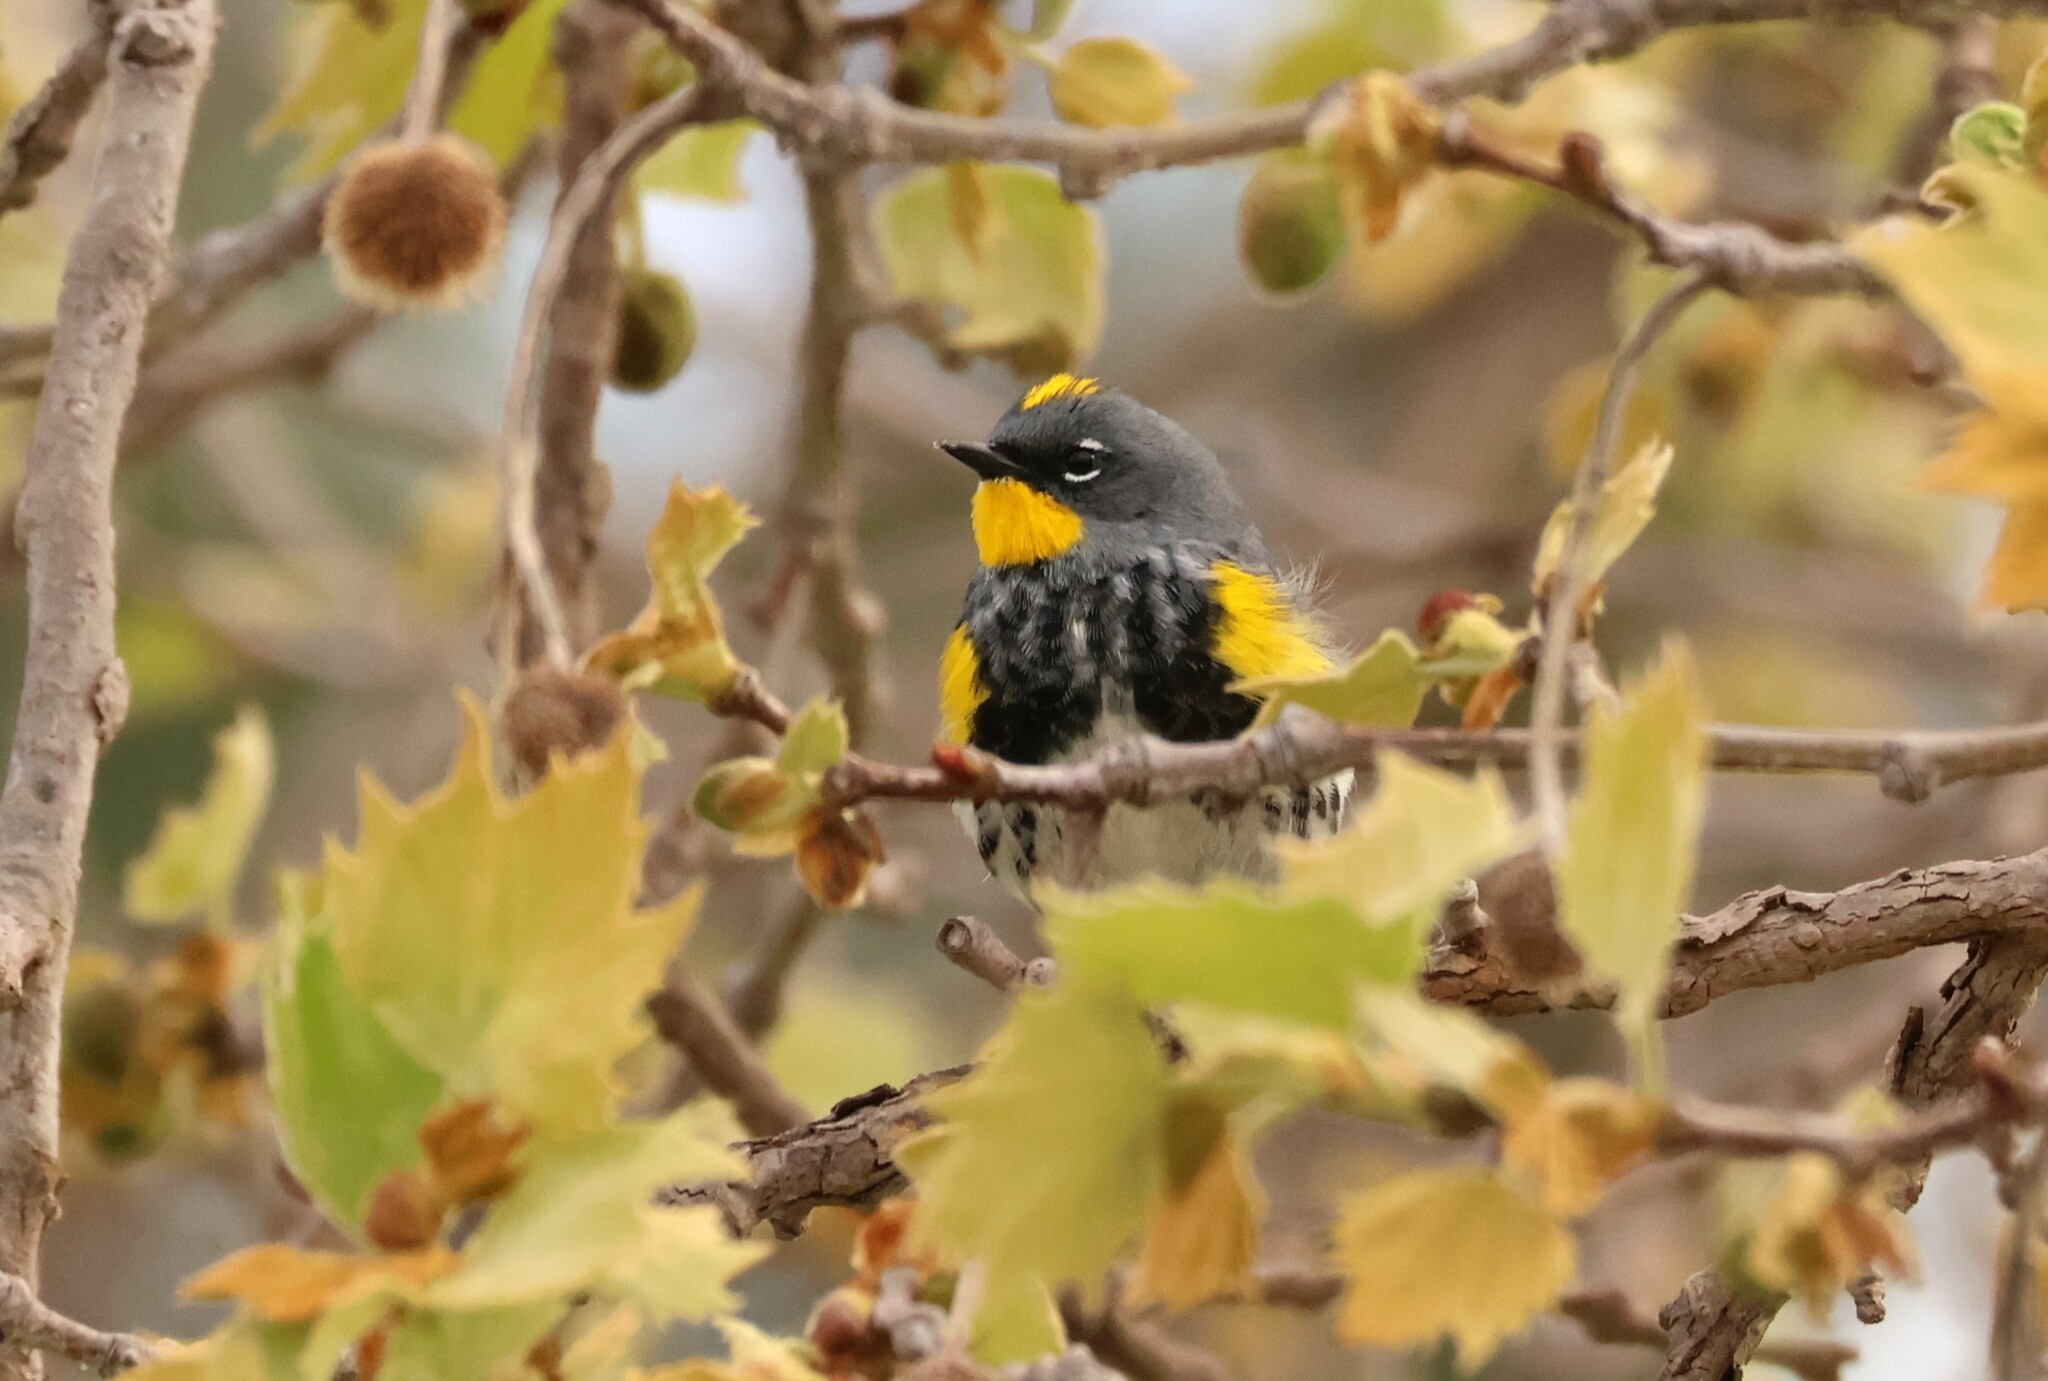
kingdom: Animalia
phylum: Chordata
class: Aves
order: Passeriformes
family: Parulidae
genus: Setophaga
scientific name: Setophaga auduboni
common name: Audubon's warbler
